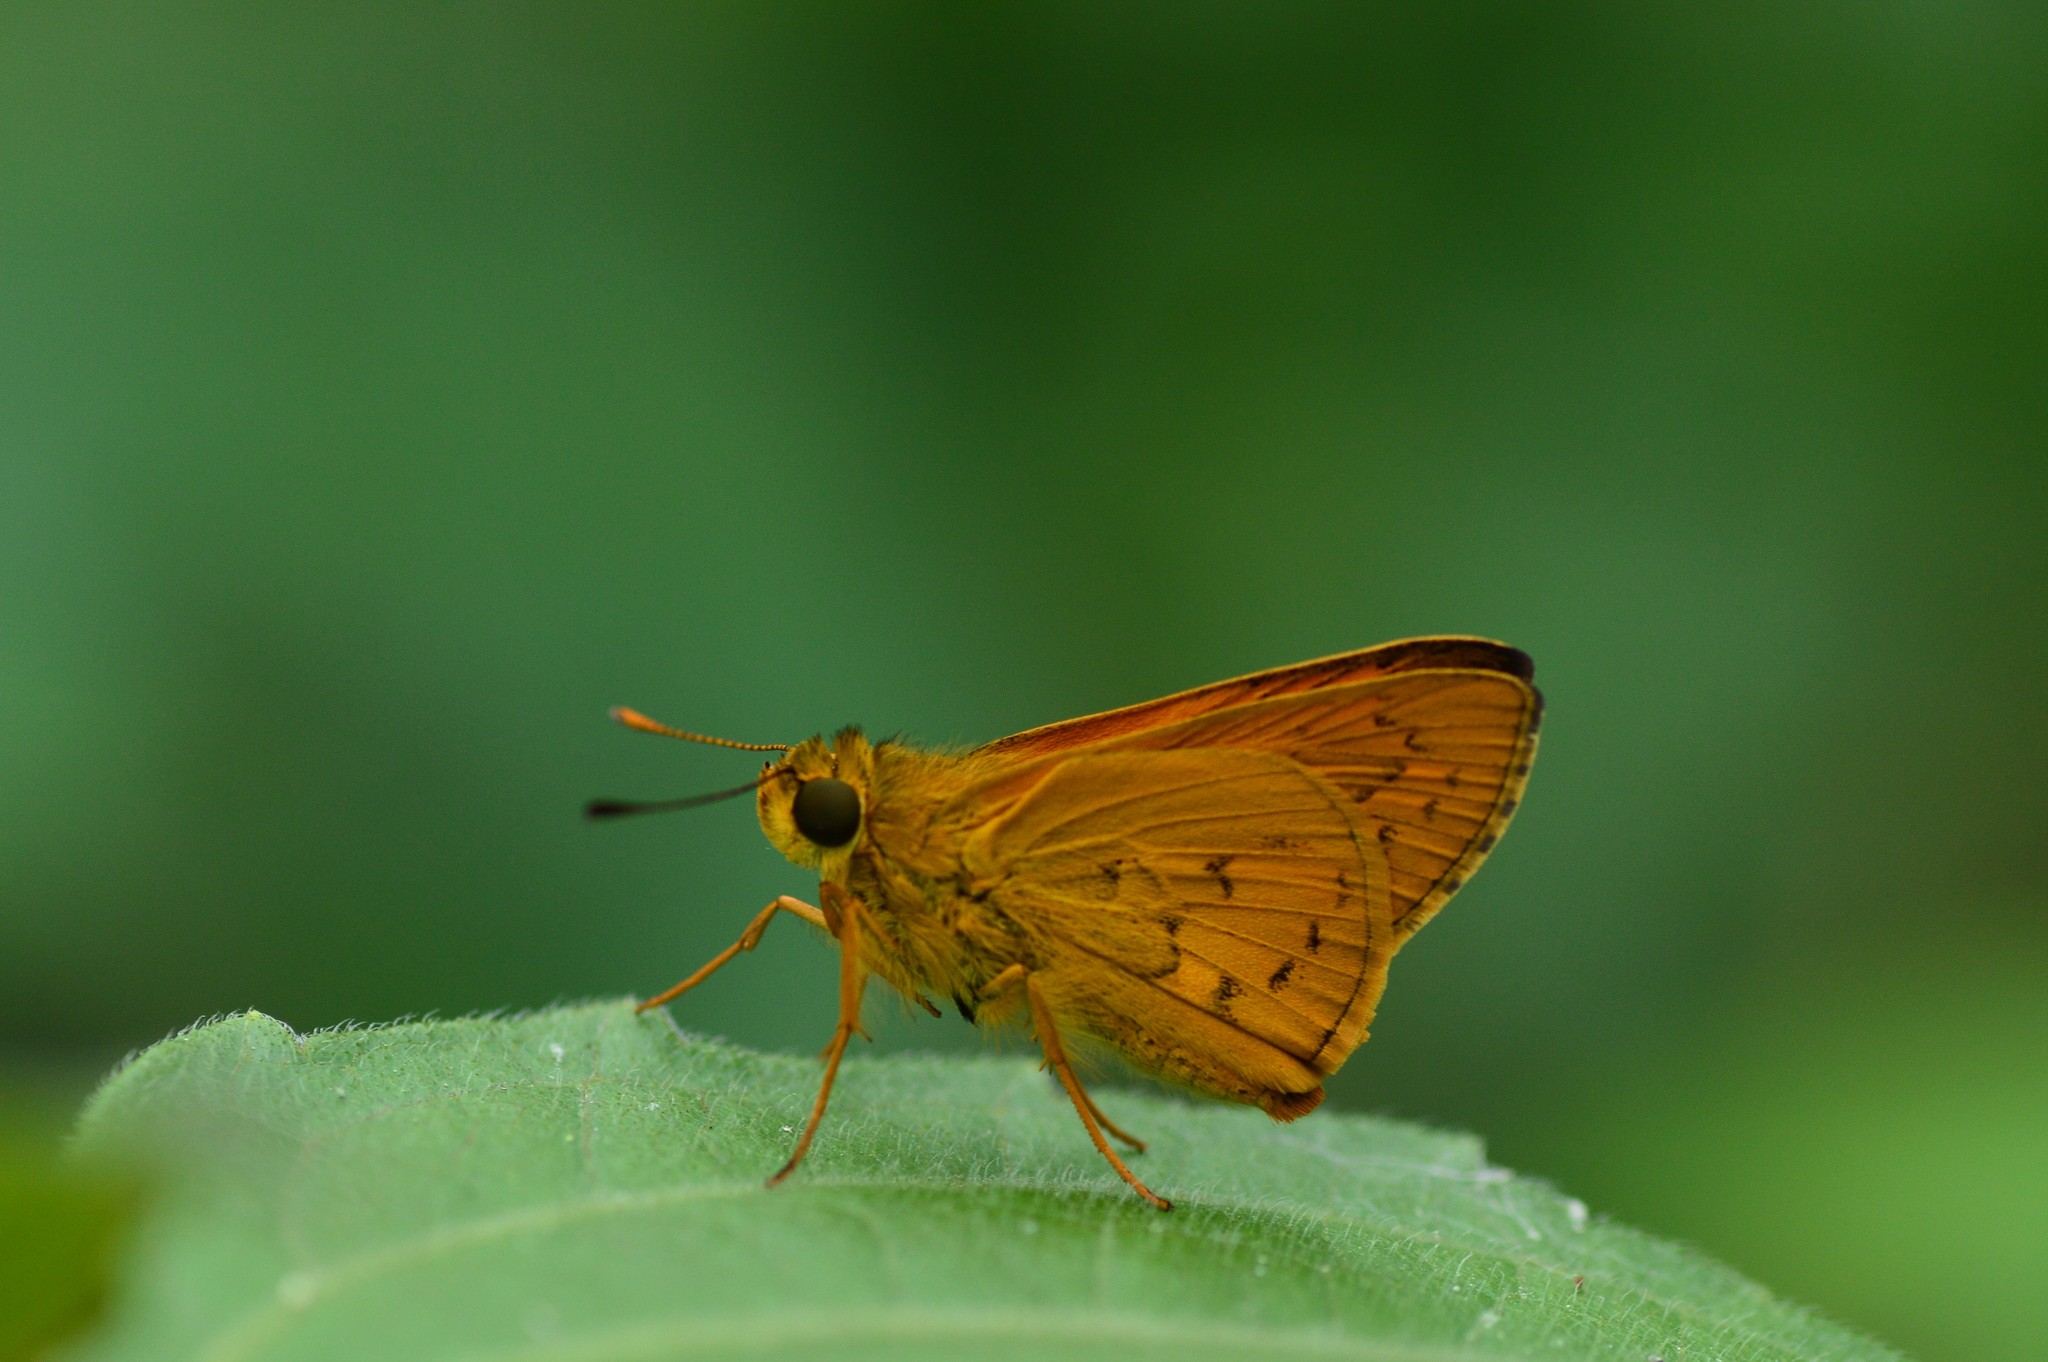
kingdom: Animalia
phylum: Arthropoda
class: Insecta
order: Lepidoptera
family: Hesperiidae
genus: Telicota
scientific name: Telicota bambusae
